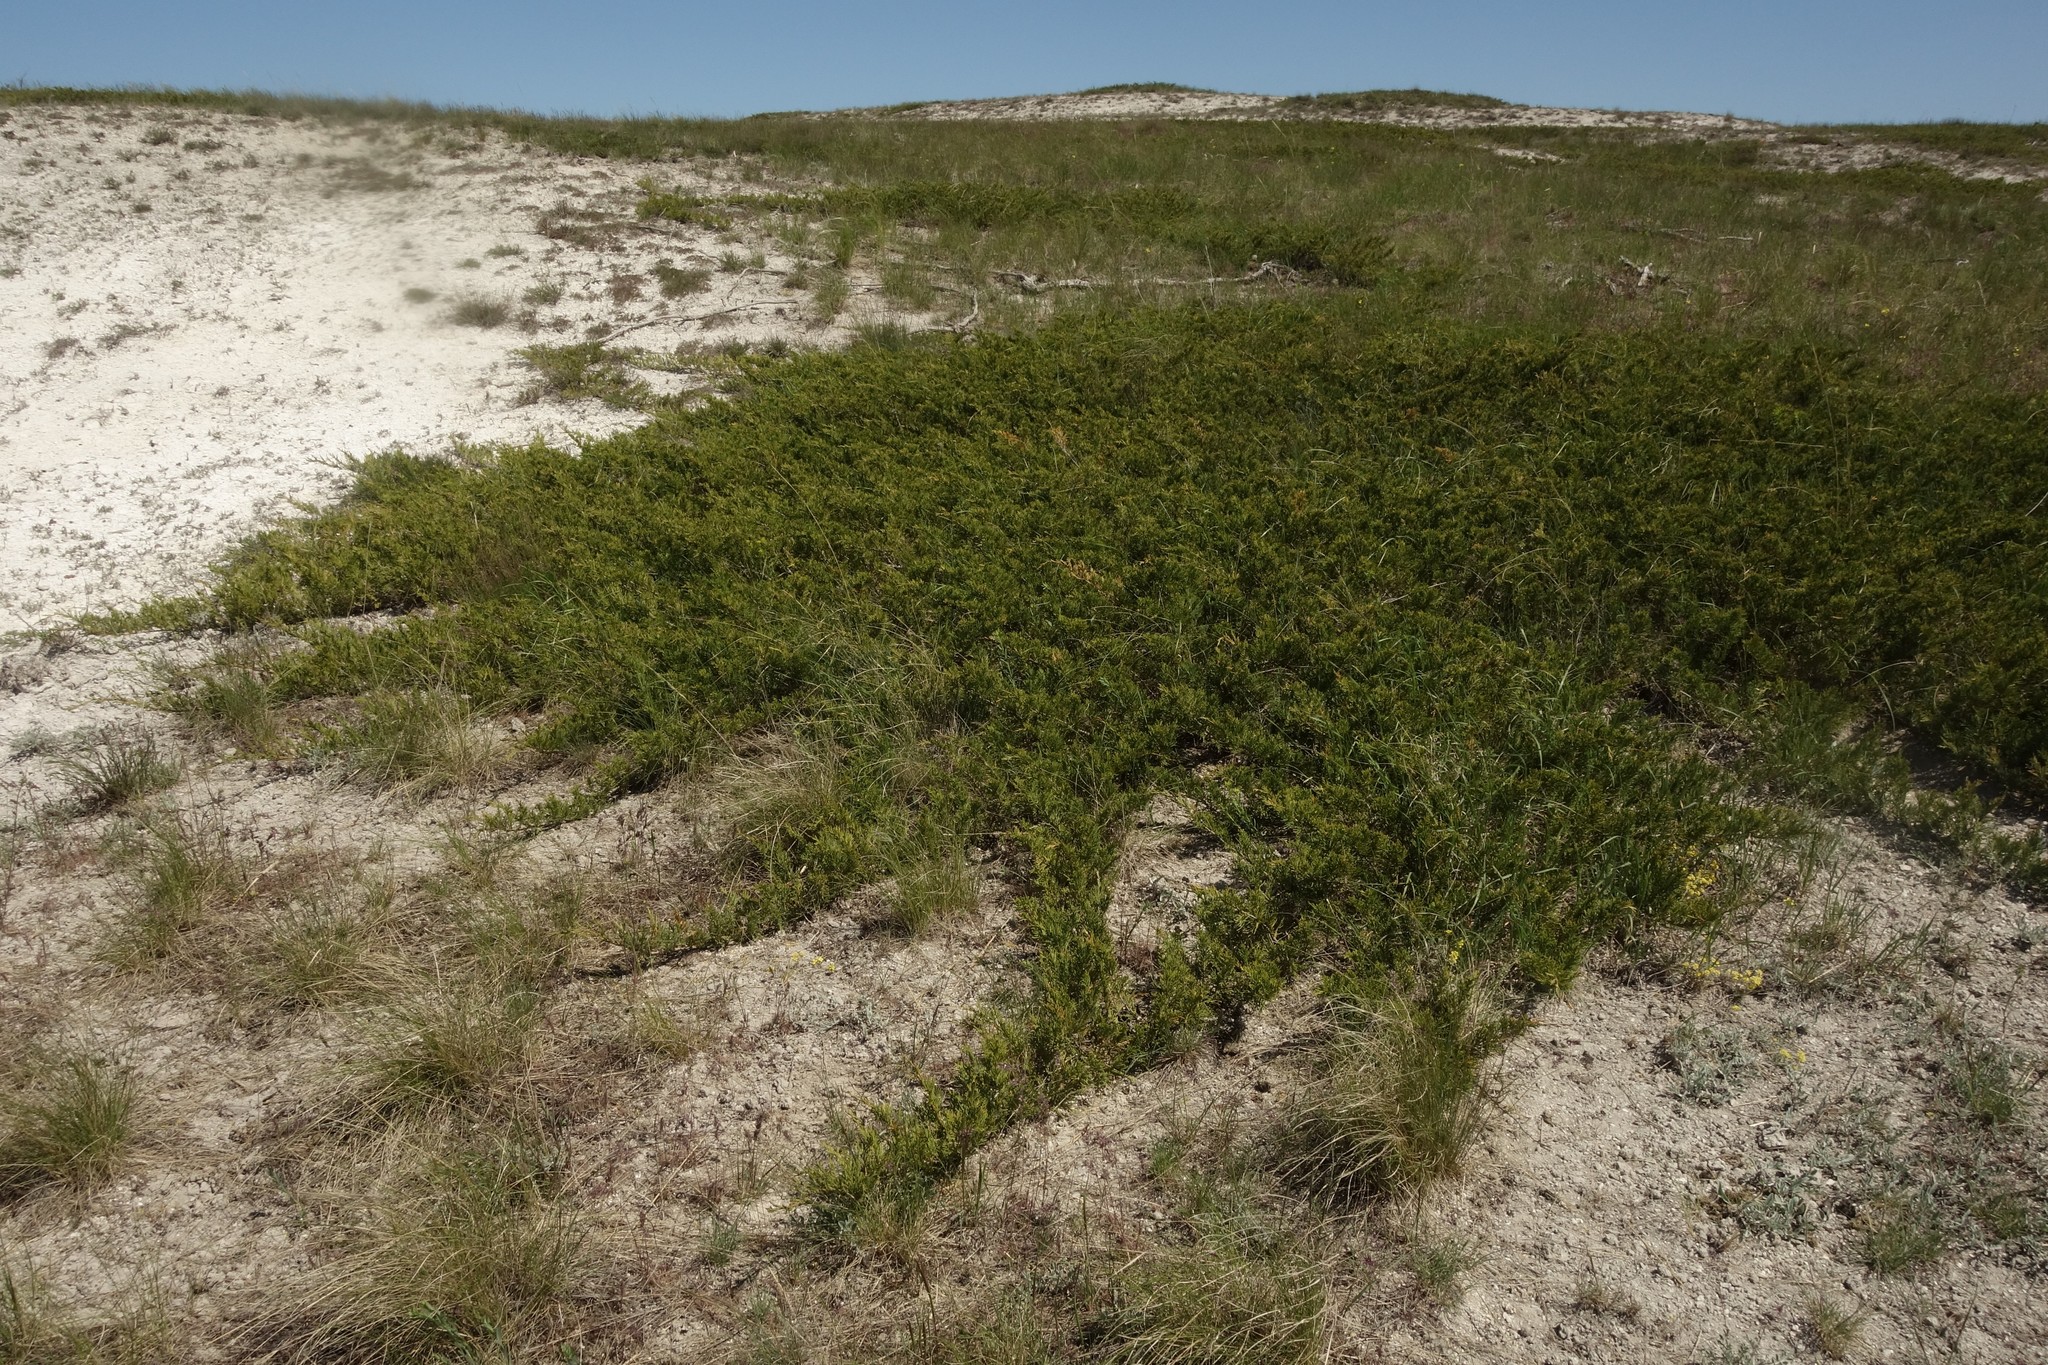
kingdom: Plantae
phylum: Tracheophyta
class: Pinopsida
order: Pinales
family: Cupressaceae
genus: Juniperus
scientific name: Juniperus sabina
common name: Savin
